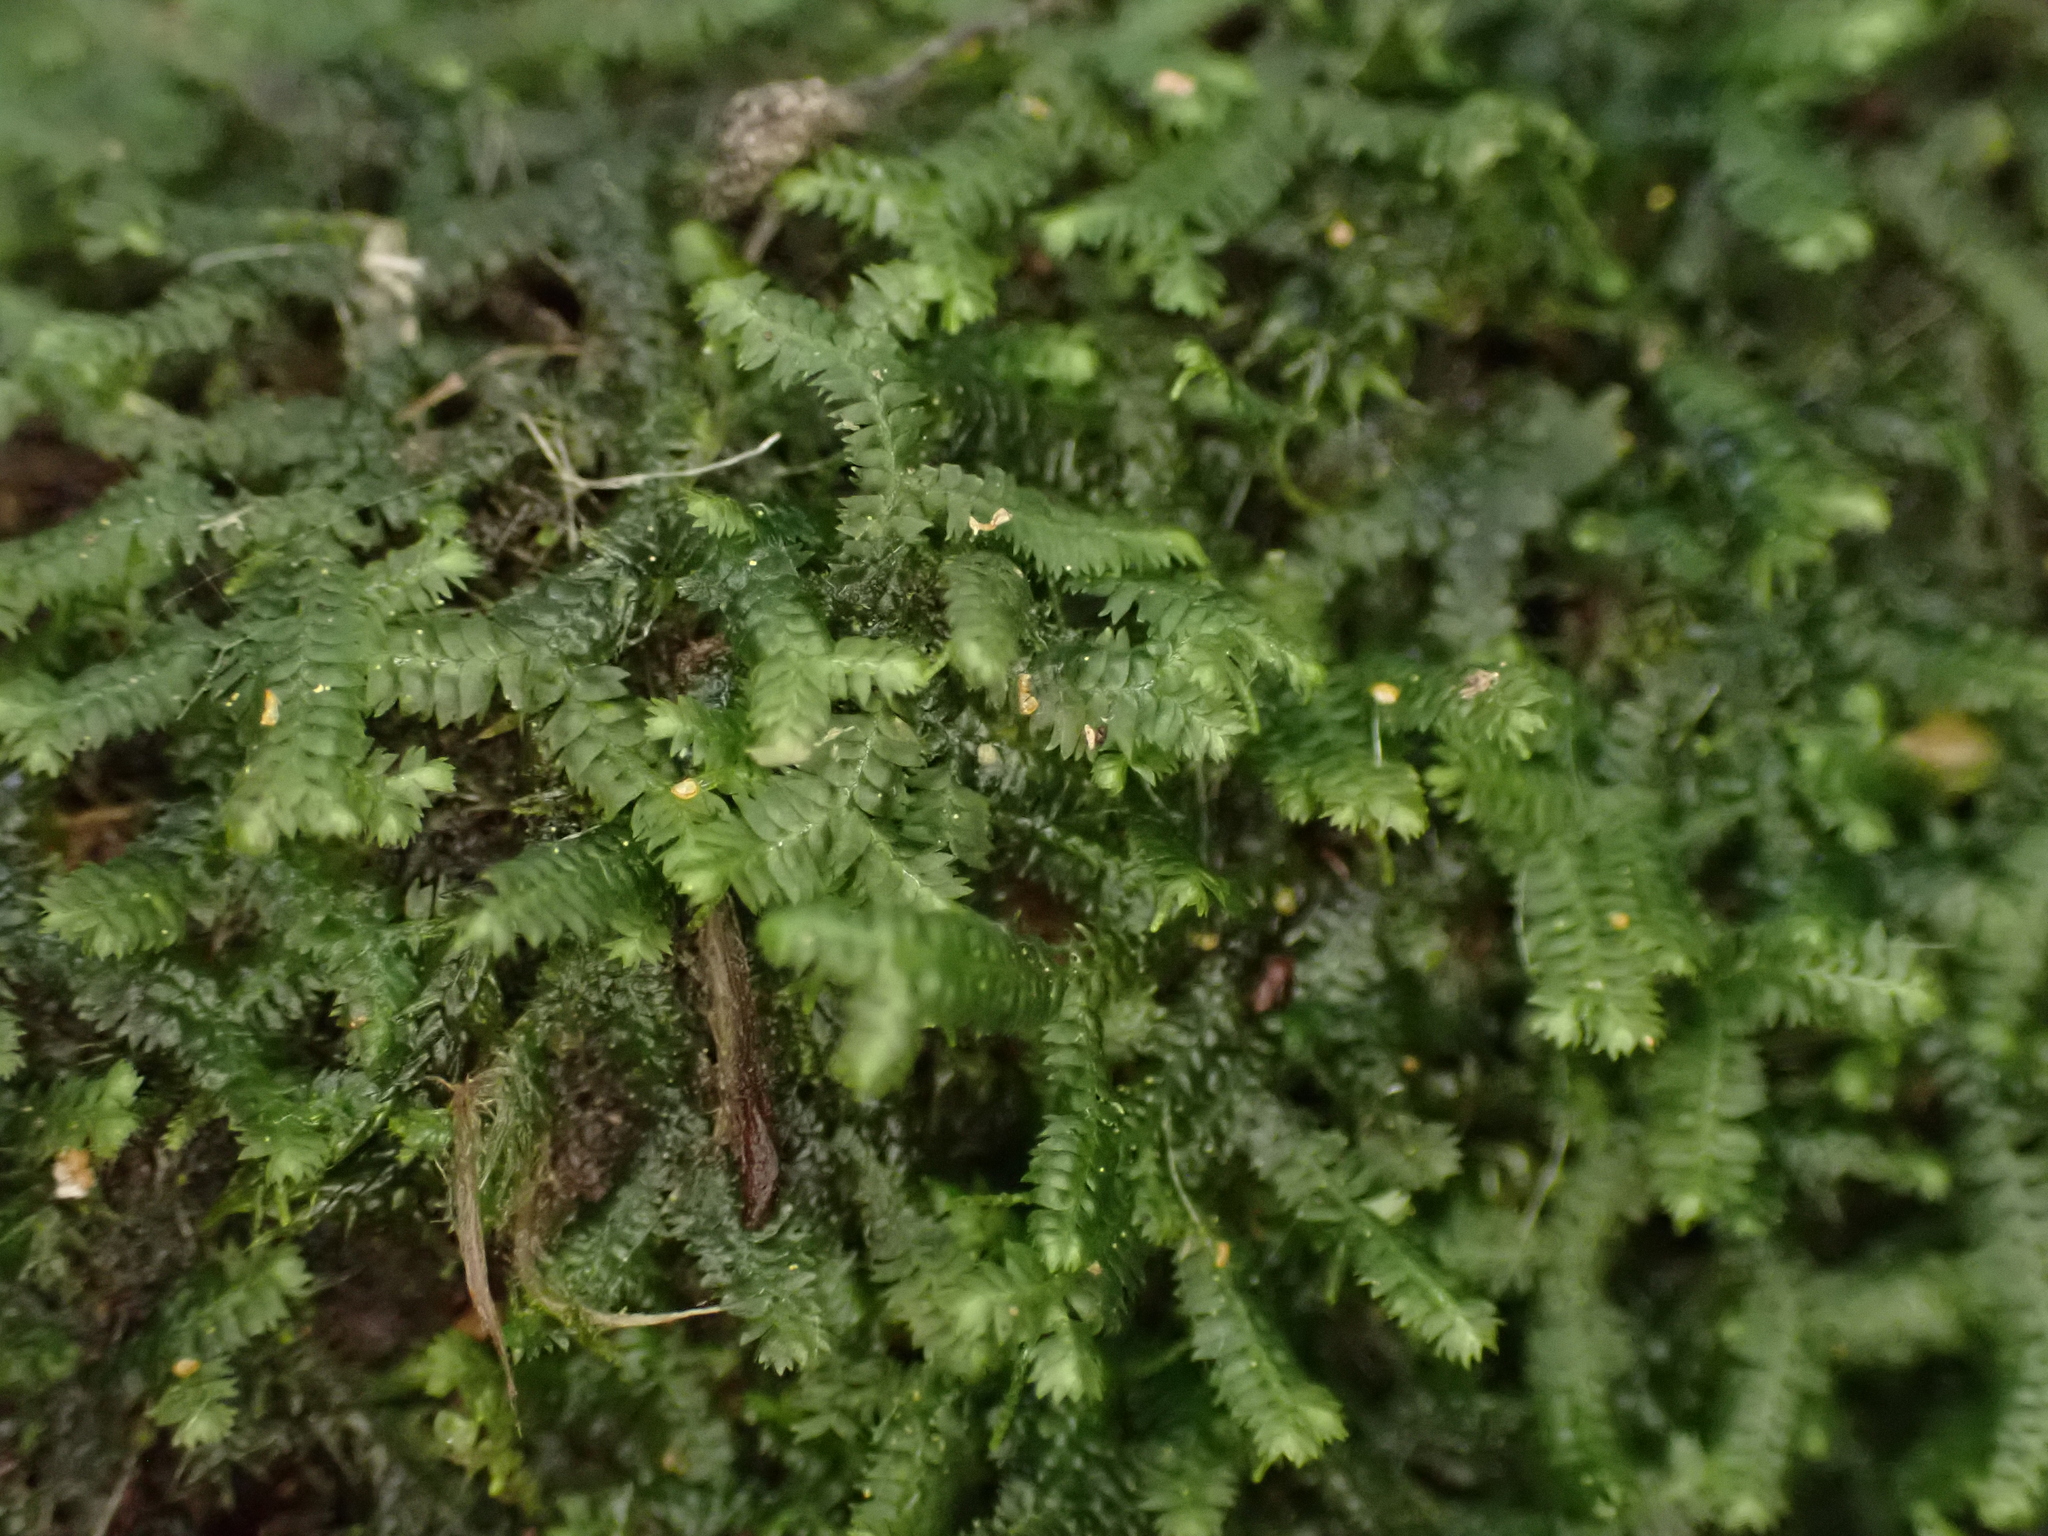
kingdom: Plantae
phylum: Marchantiophyta
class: Jungermanniopsida
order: Jungermanniales
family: Lepidoziaceae
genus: Acromastigum
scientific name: Acromastigum colensoanum
